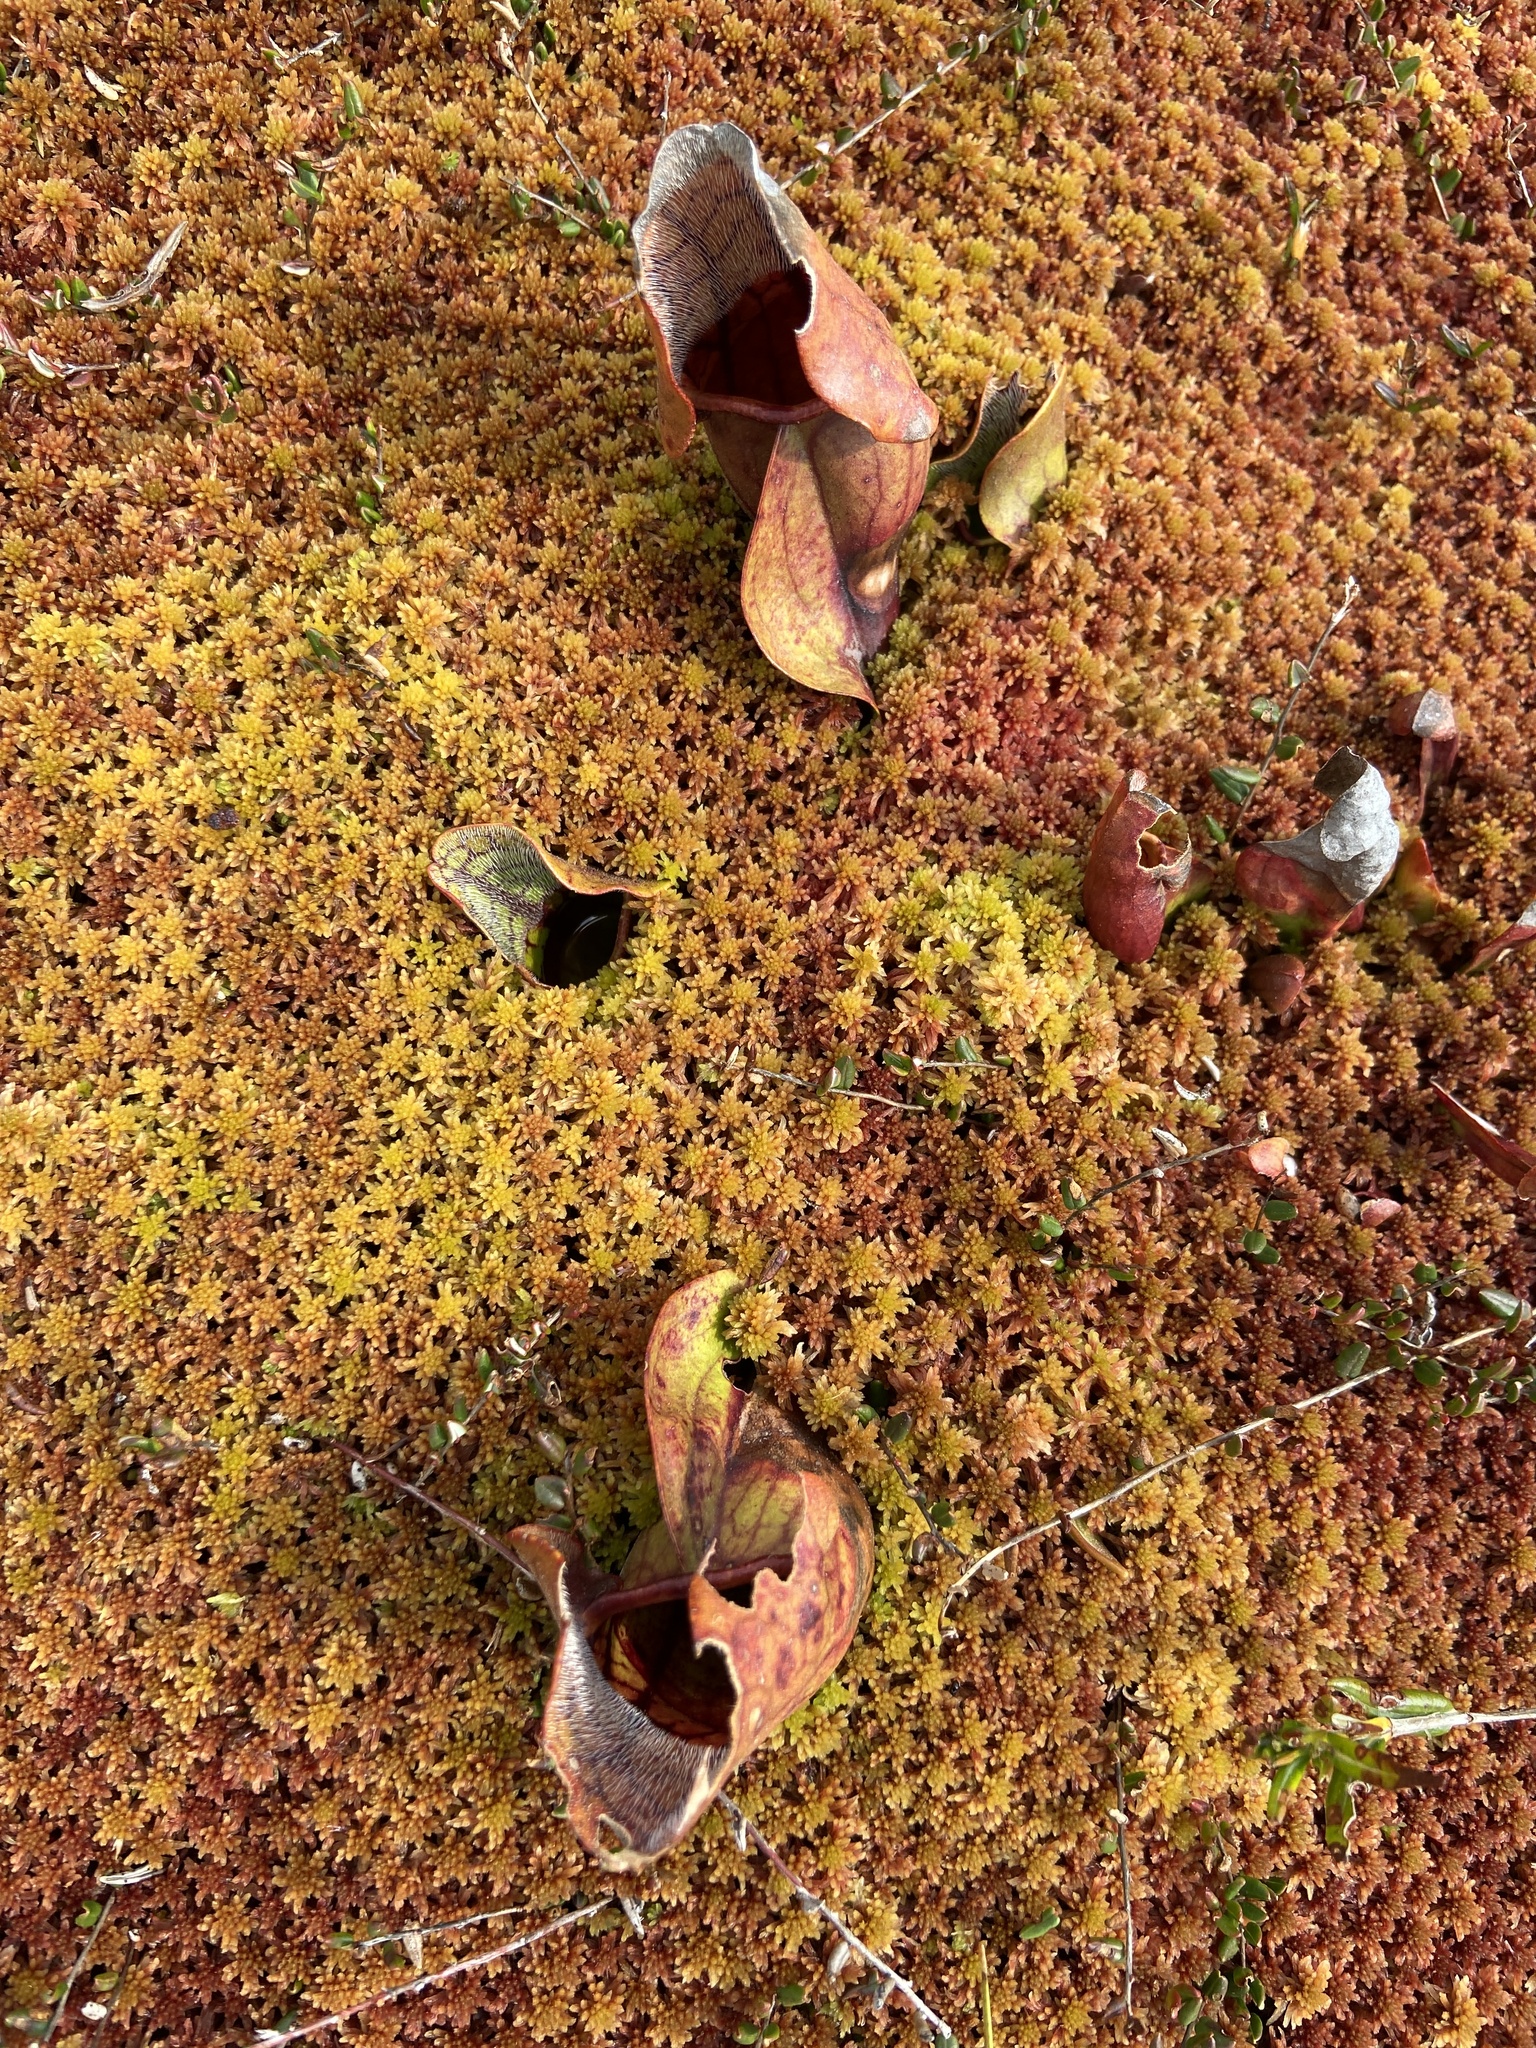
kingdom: Plantae
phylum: Tracheophyta
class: Magnoliopsida
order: Ericales
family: Sarraceniaceae
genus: Sarracenia
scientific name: Sarracenia purpurea
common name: Pitcherplant
